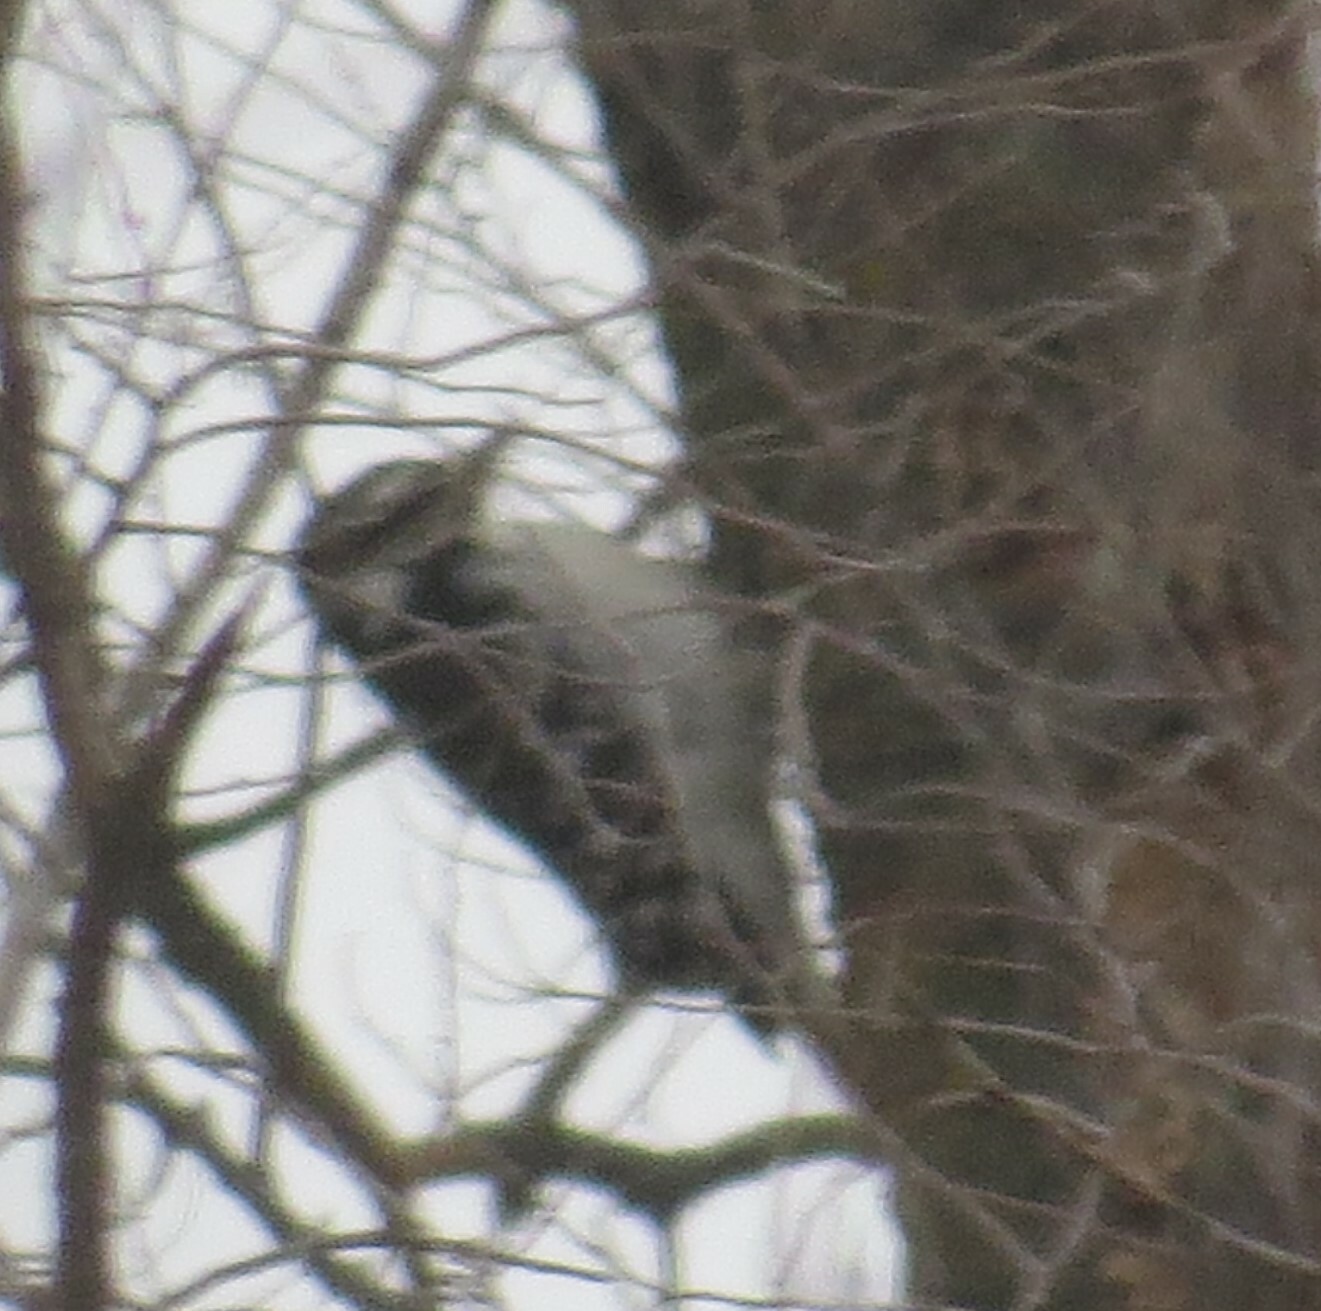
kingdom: Animalia
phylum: Chordata
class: Aves
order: Piciformes
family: Picidae
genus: Dryobates
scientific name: Dryobates
